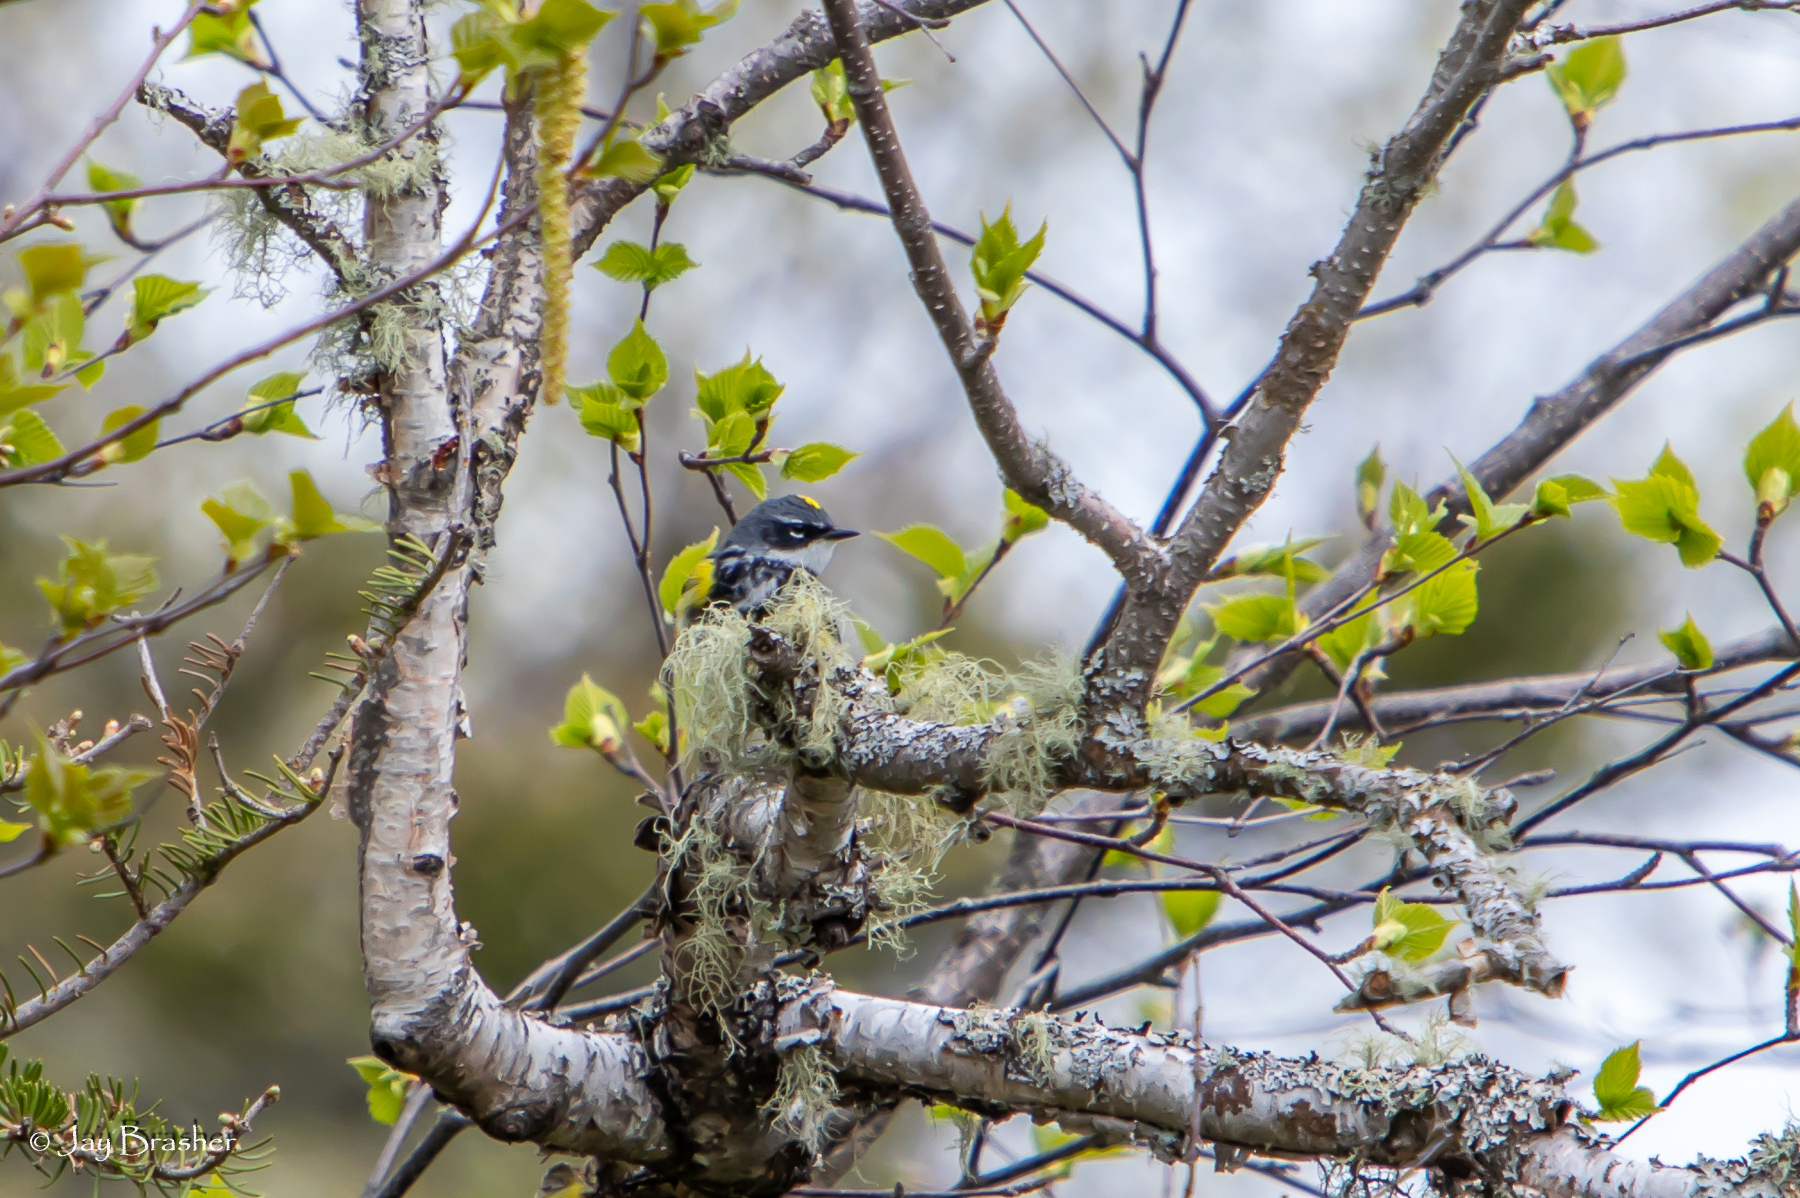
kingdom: Animalia
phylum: Chordata
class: Aves
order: Passeriformes
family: Parulidae
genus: Setophaga
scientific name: Setophaga coronata
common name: Myrtle warbler
